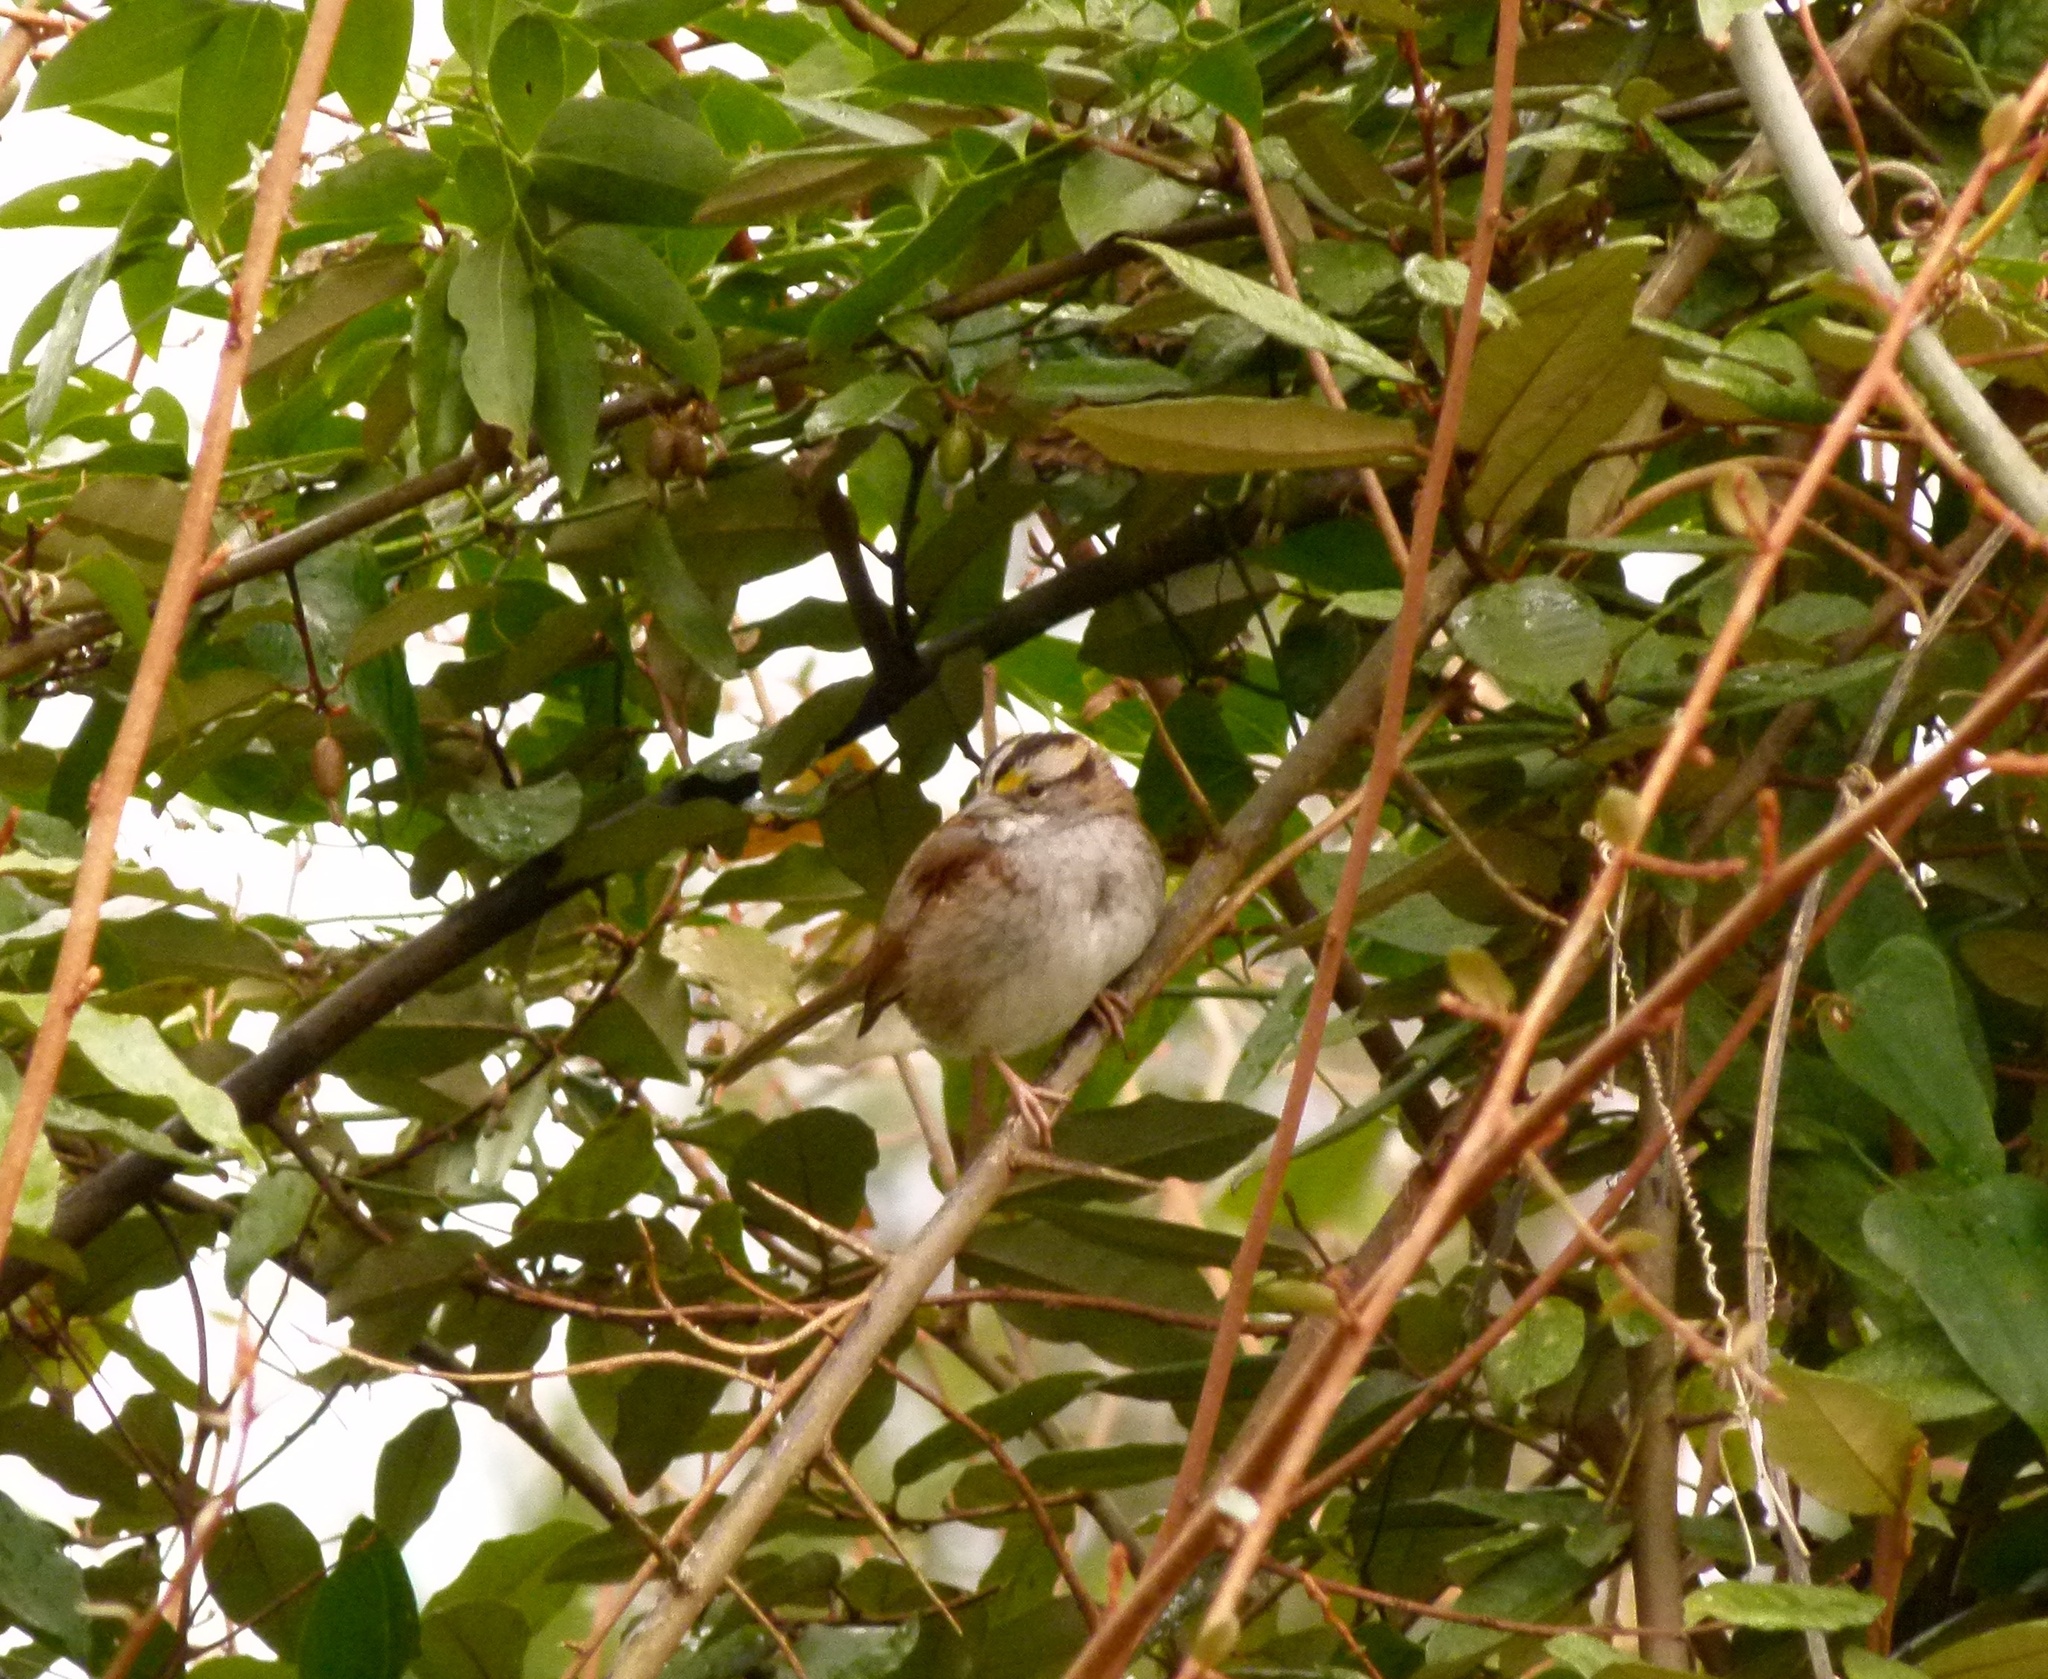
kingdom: Animalia
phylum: Chordata
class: Aves
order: Passeriformes
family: Passerellidae
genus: Zonotrichia
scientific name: Zonotrichia albicollis
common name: White-throated sparrow
